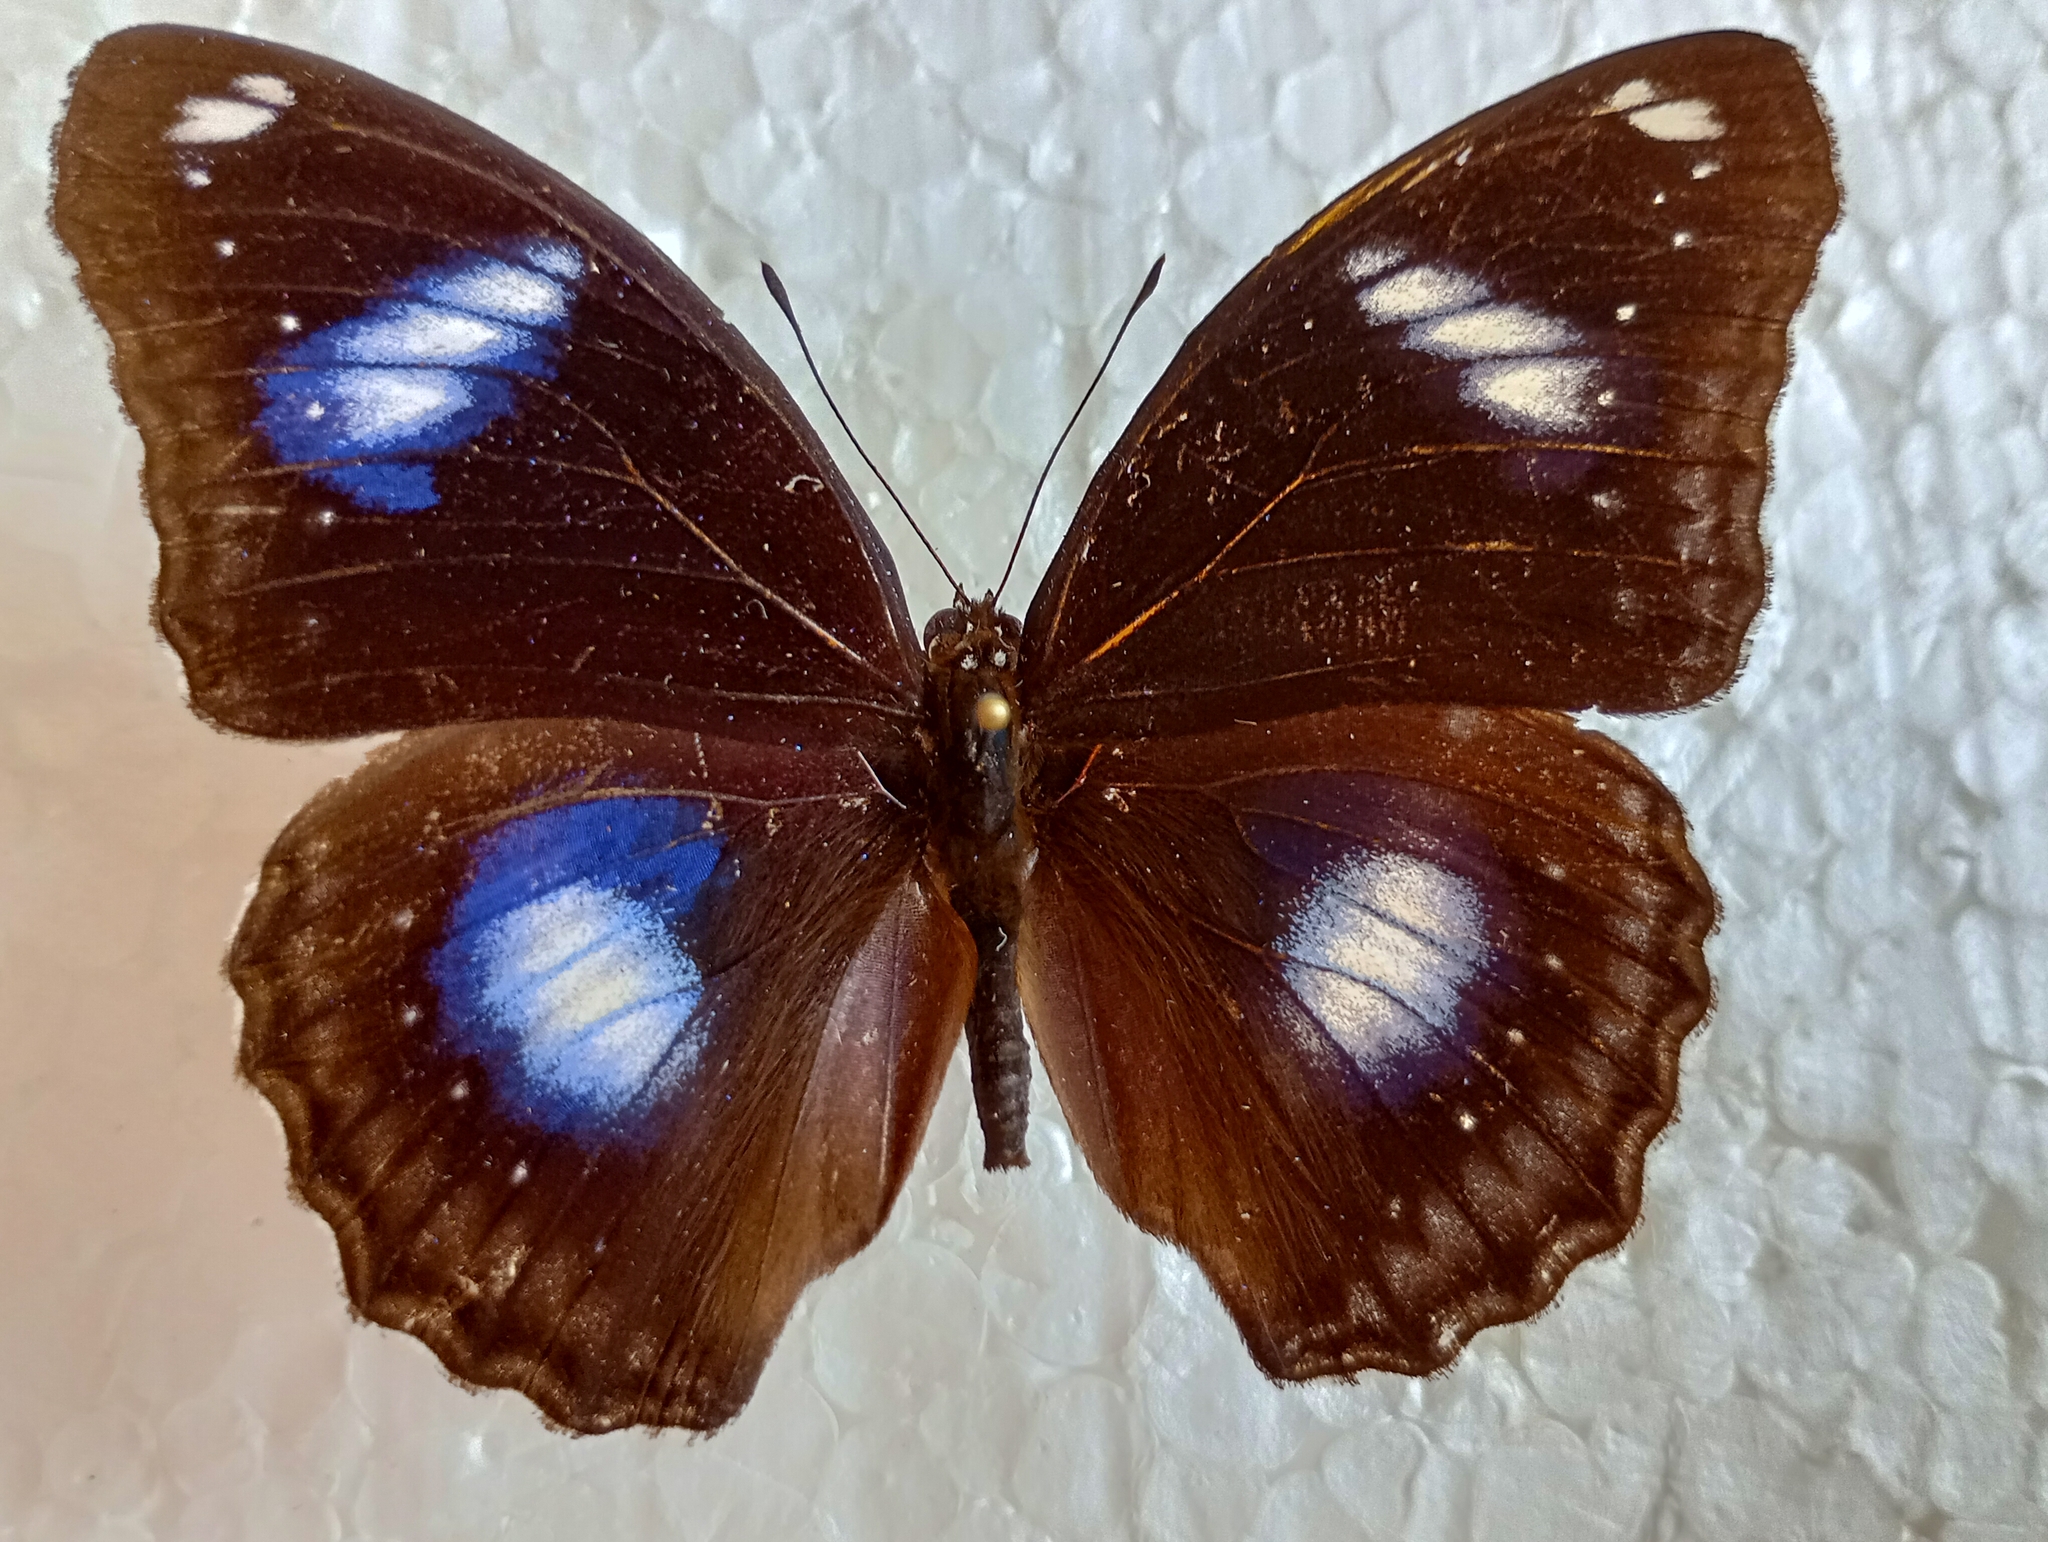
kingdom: Animalia
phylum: Arthropoda
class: Insecta
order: Lepidoptera
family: Nymphalidae
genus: Hypolimnas
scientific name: Hypolimnas bolina
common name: Great eggfly
